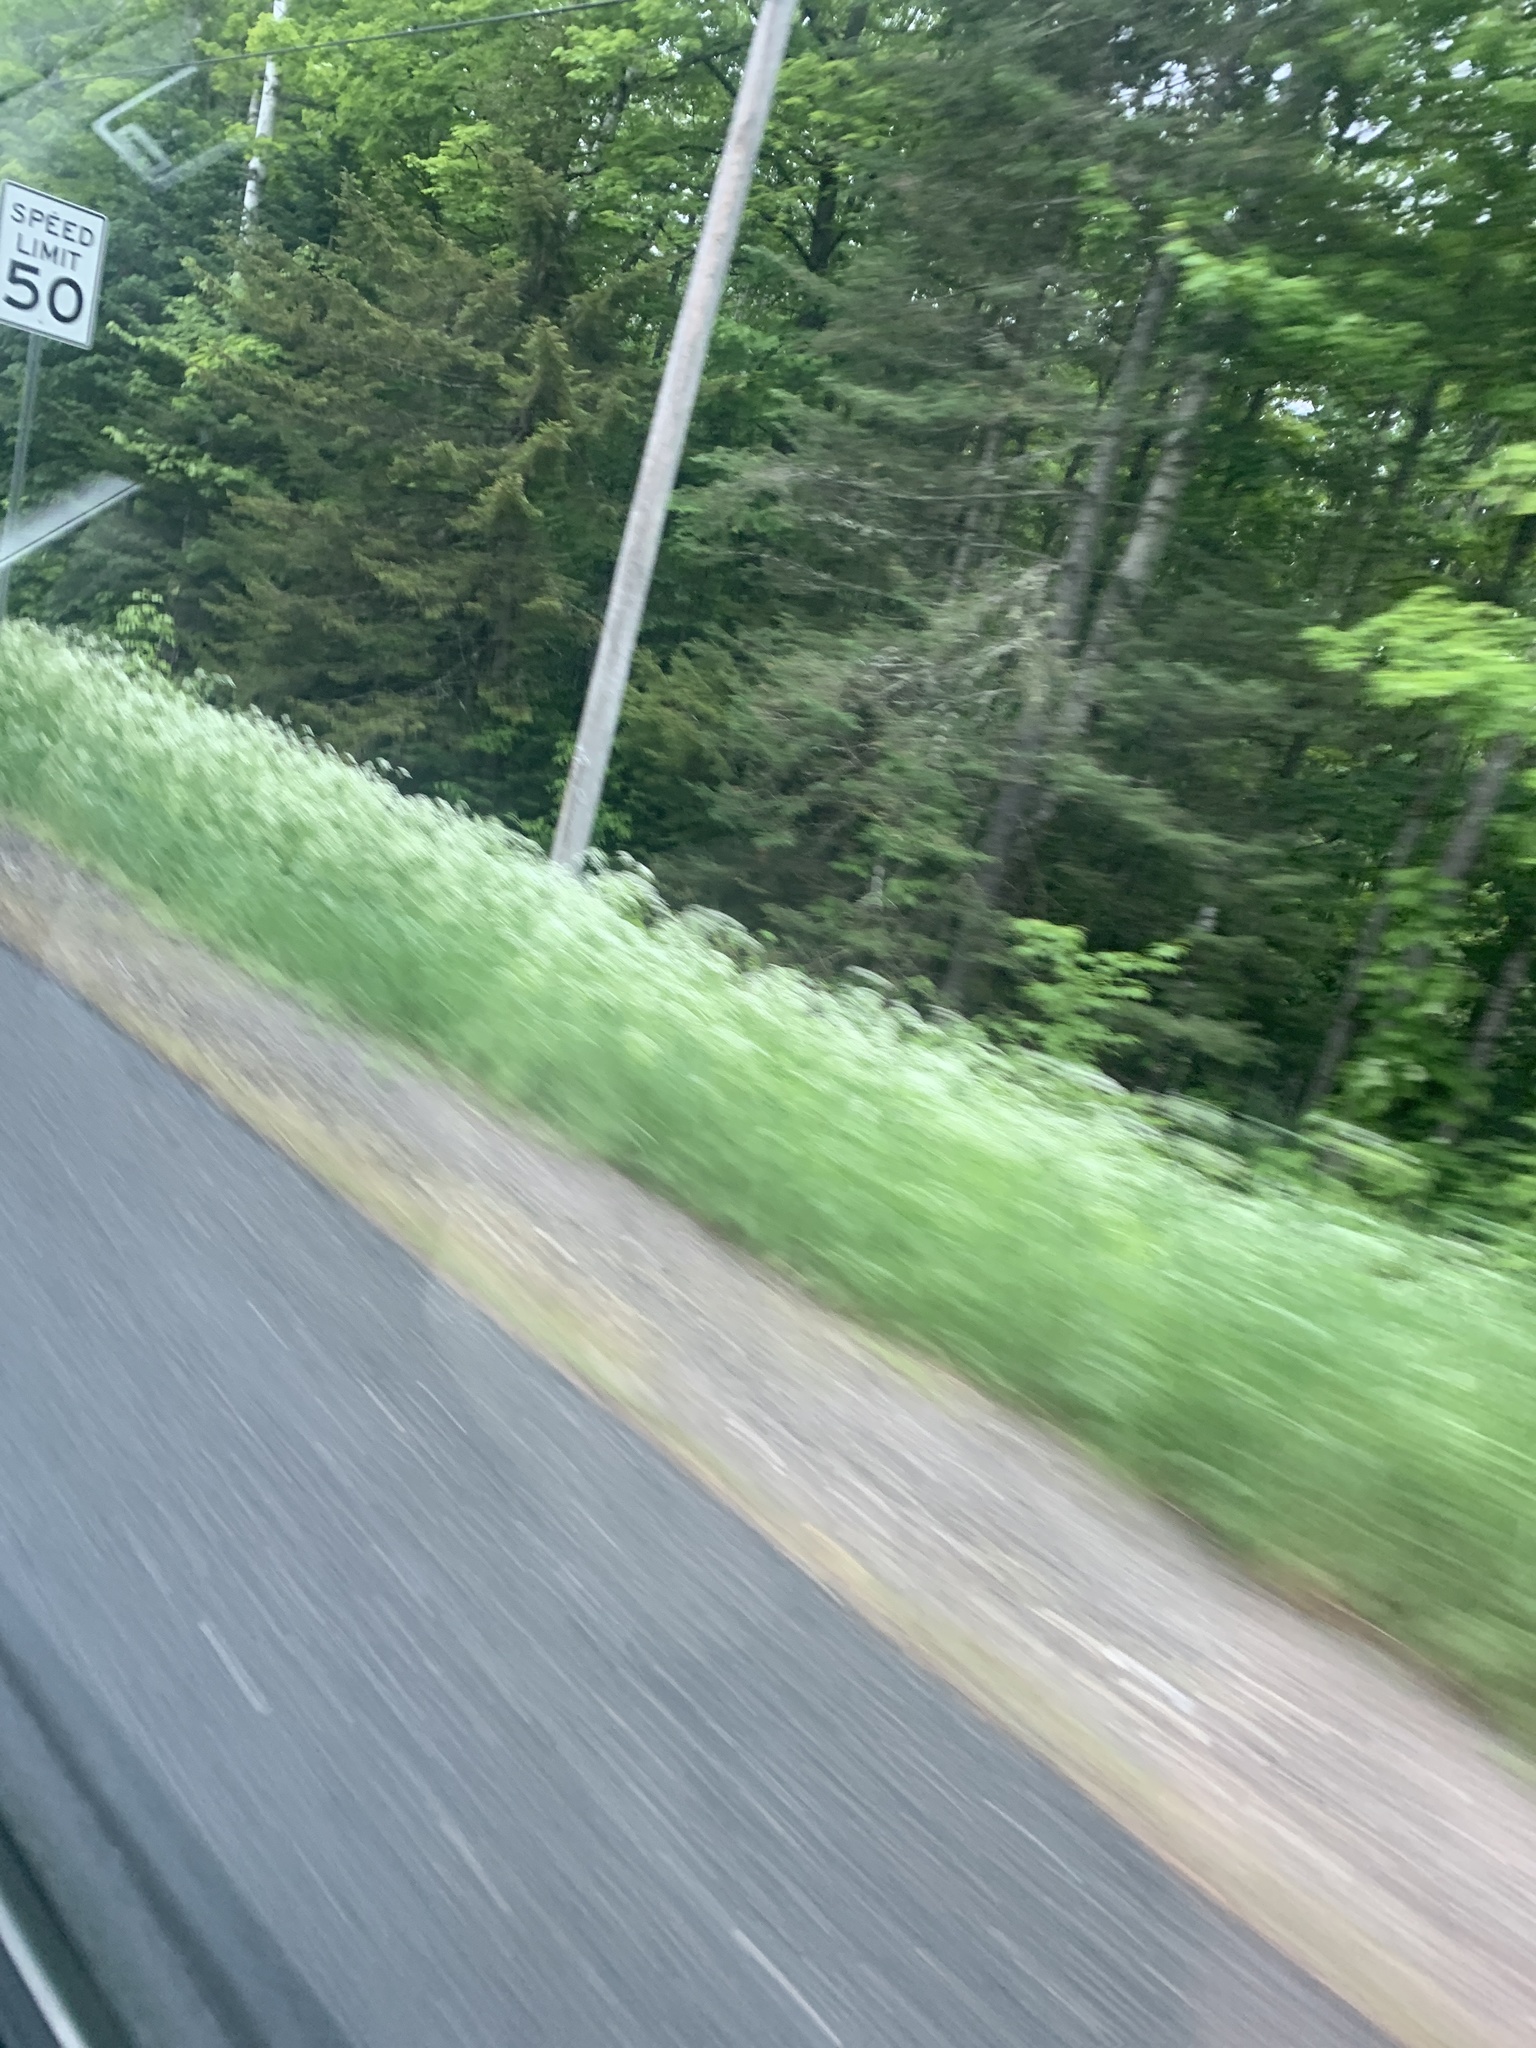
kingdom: Plantae
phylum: Tracheophyta
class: Magnoliopsida
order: Apiales
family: Apiaceae
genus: Anthriscus
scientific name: Anthriscus sylvestris
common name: Cow parsley
